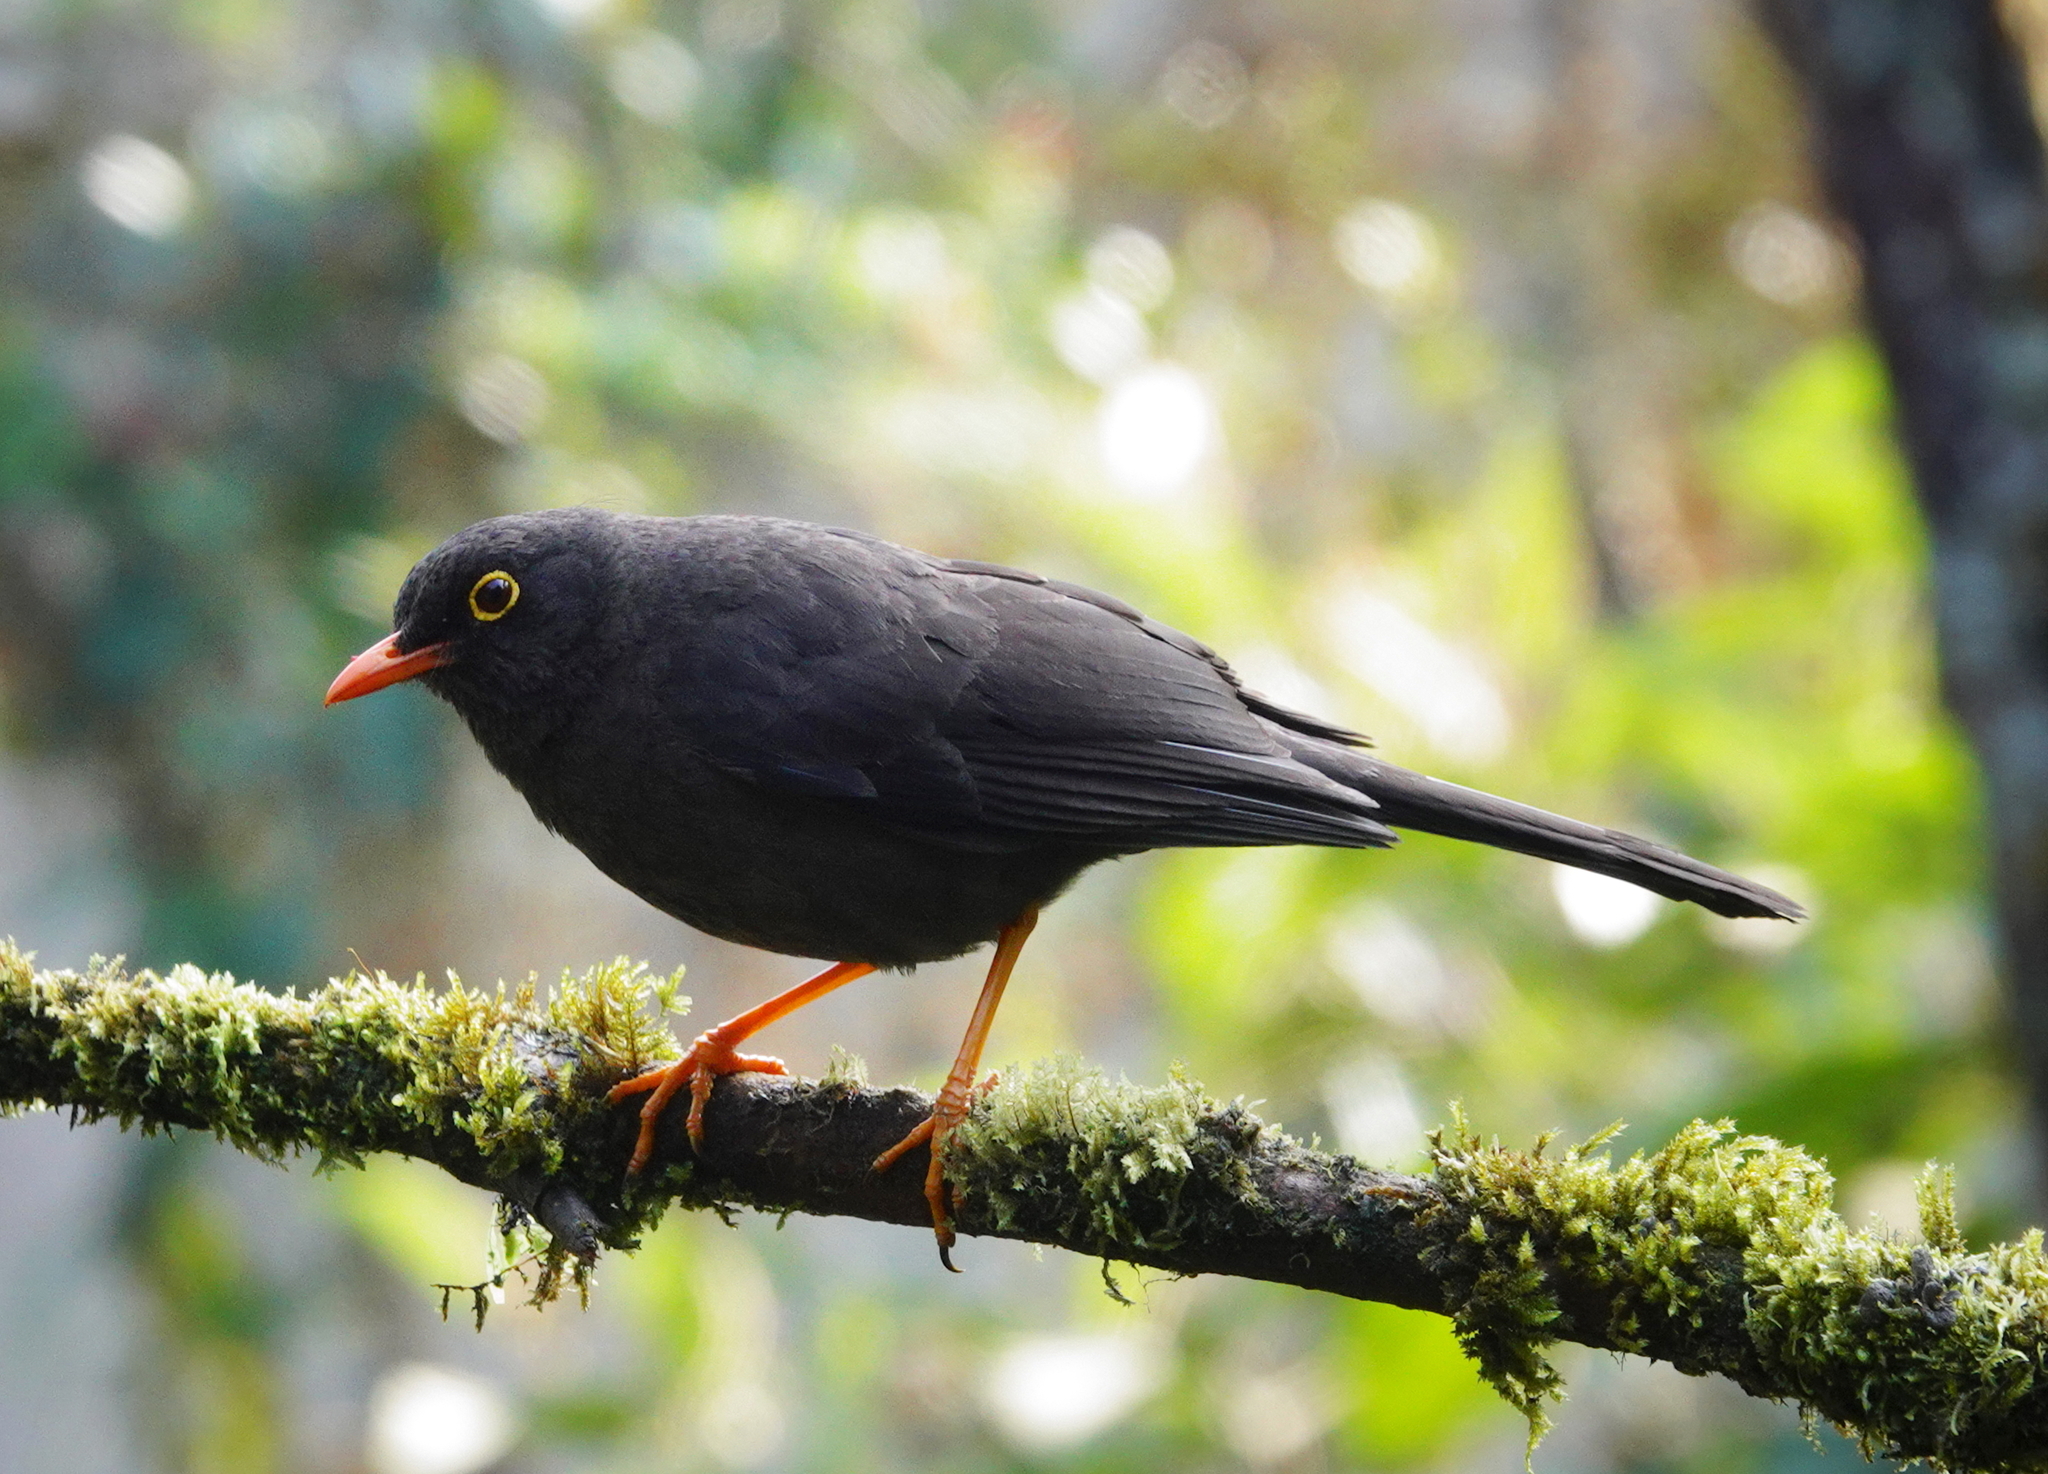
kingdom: Animalia
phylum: Chordata
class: Aves
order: Passeriformes
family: Turdidae
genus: Turdus
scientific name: Turdus fuscater
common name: Great thrush
